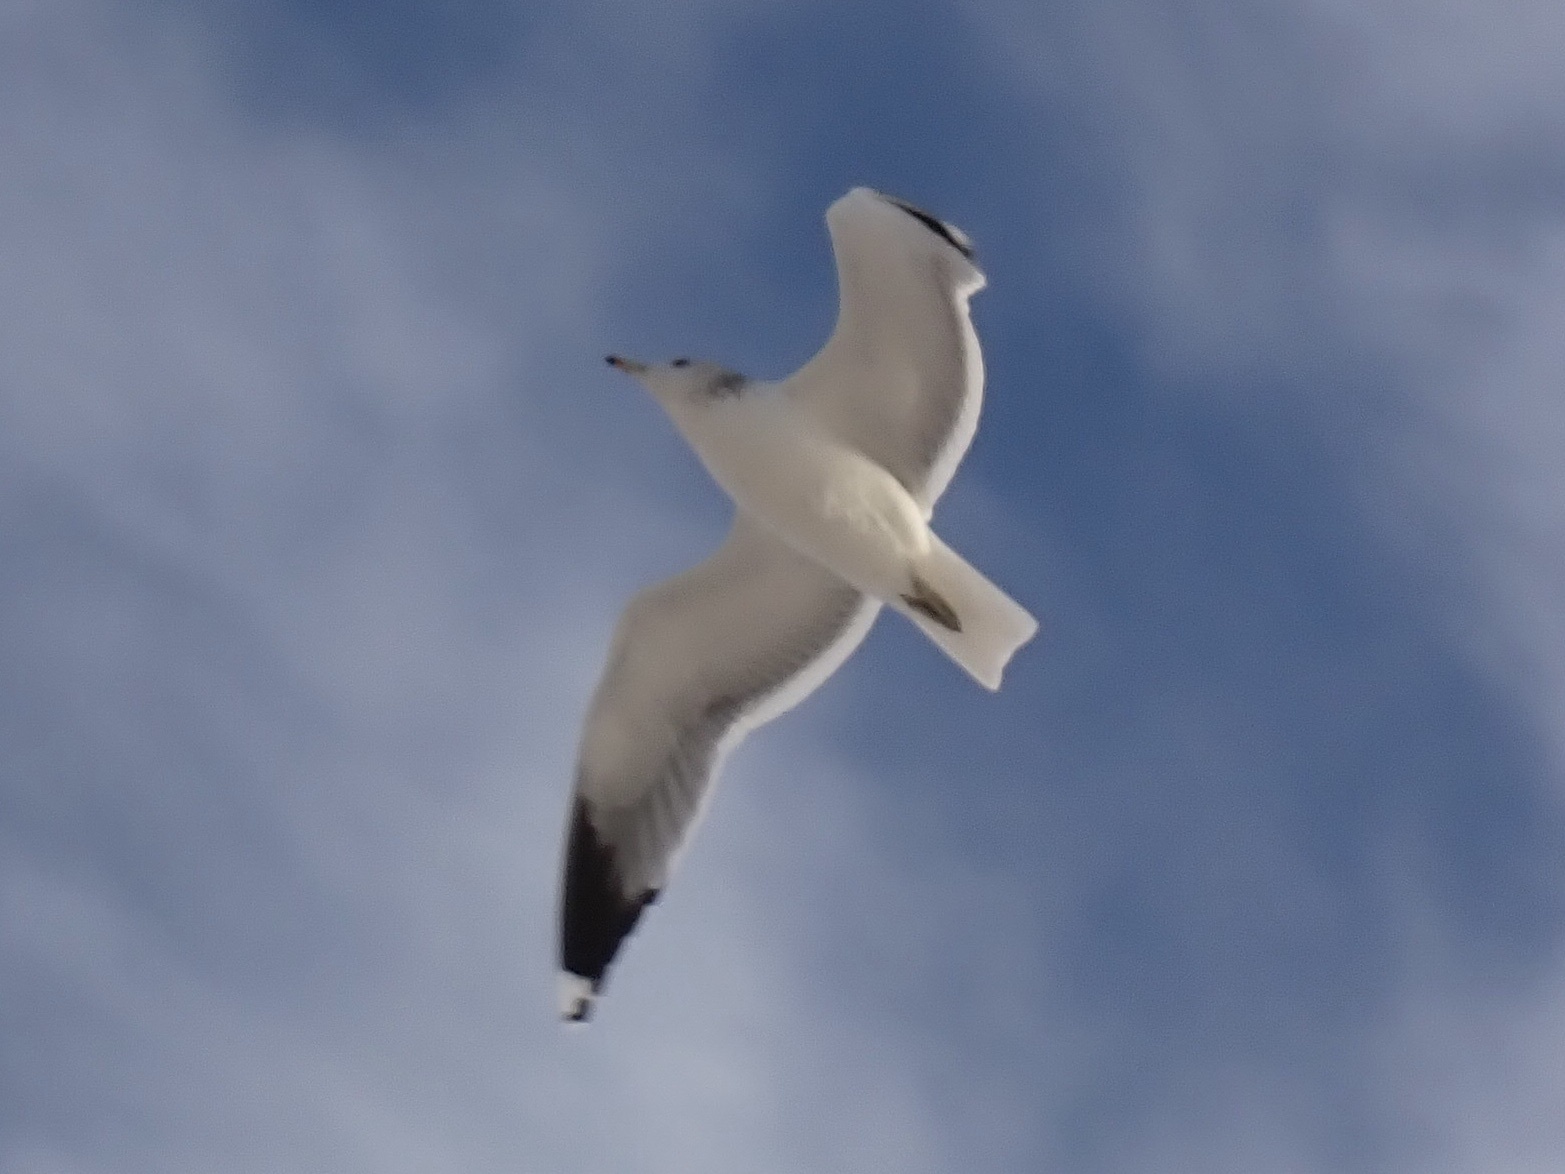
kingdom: Animalia
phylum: Chordata
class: Aves
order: Charadriiformes
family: Laridae
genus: Larus
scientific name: Larus californicus
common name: California gull
